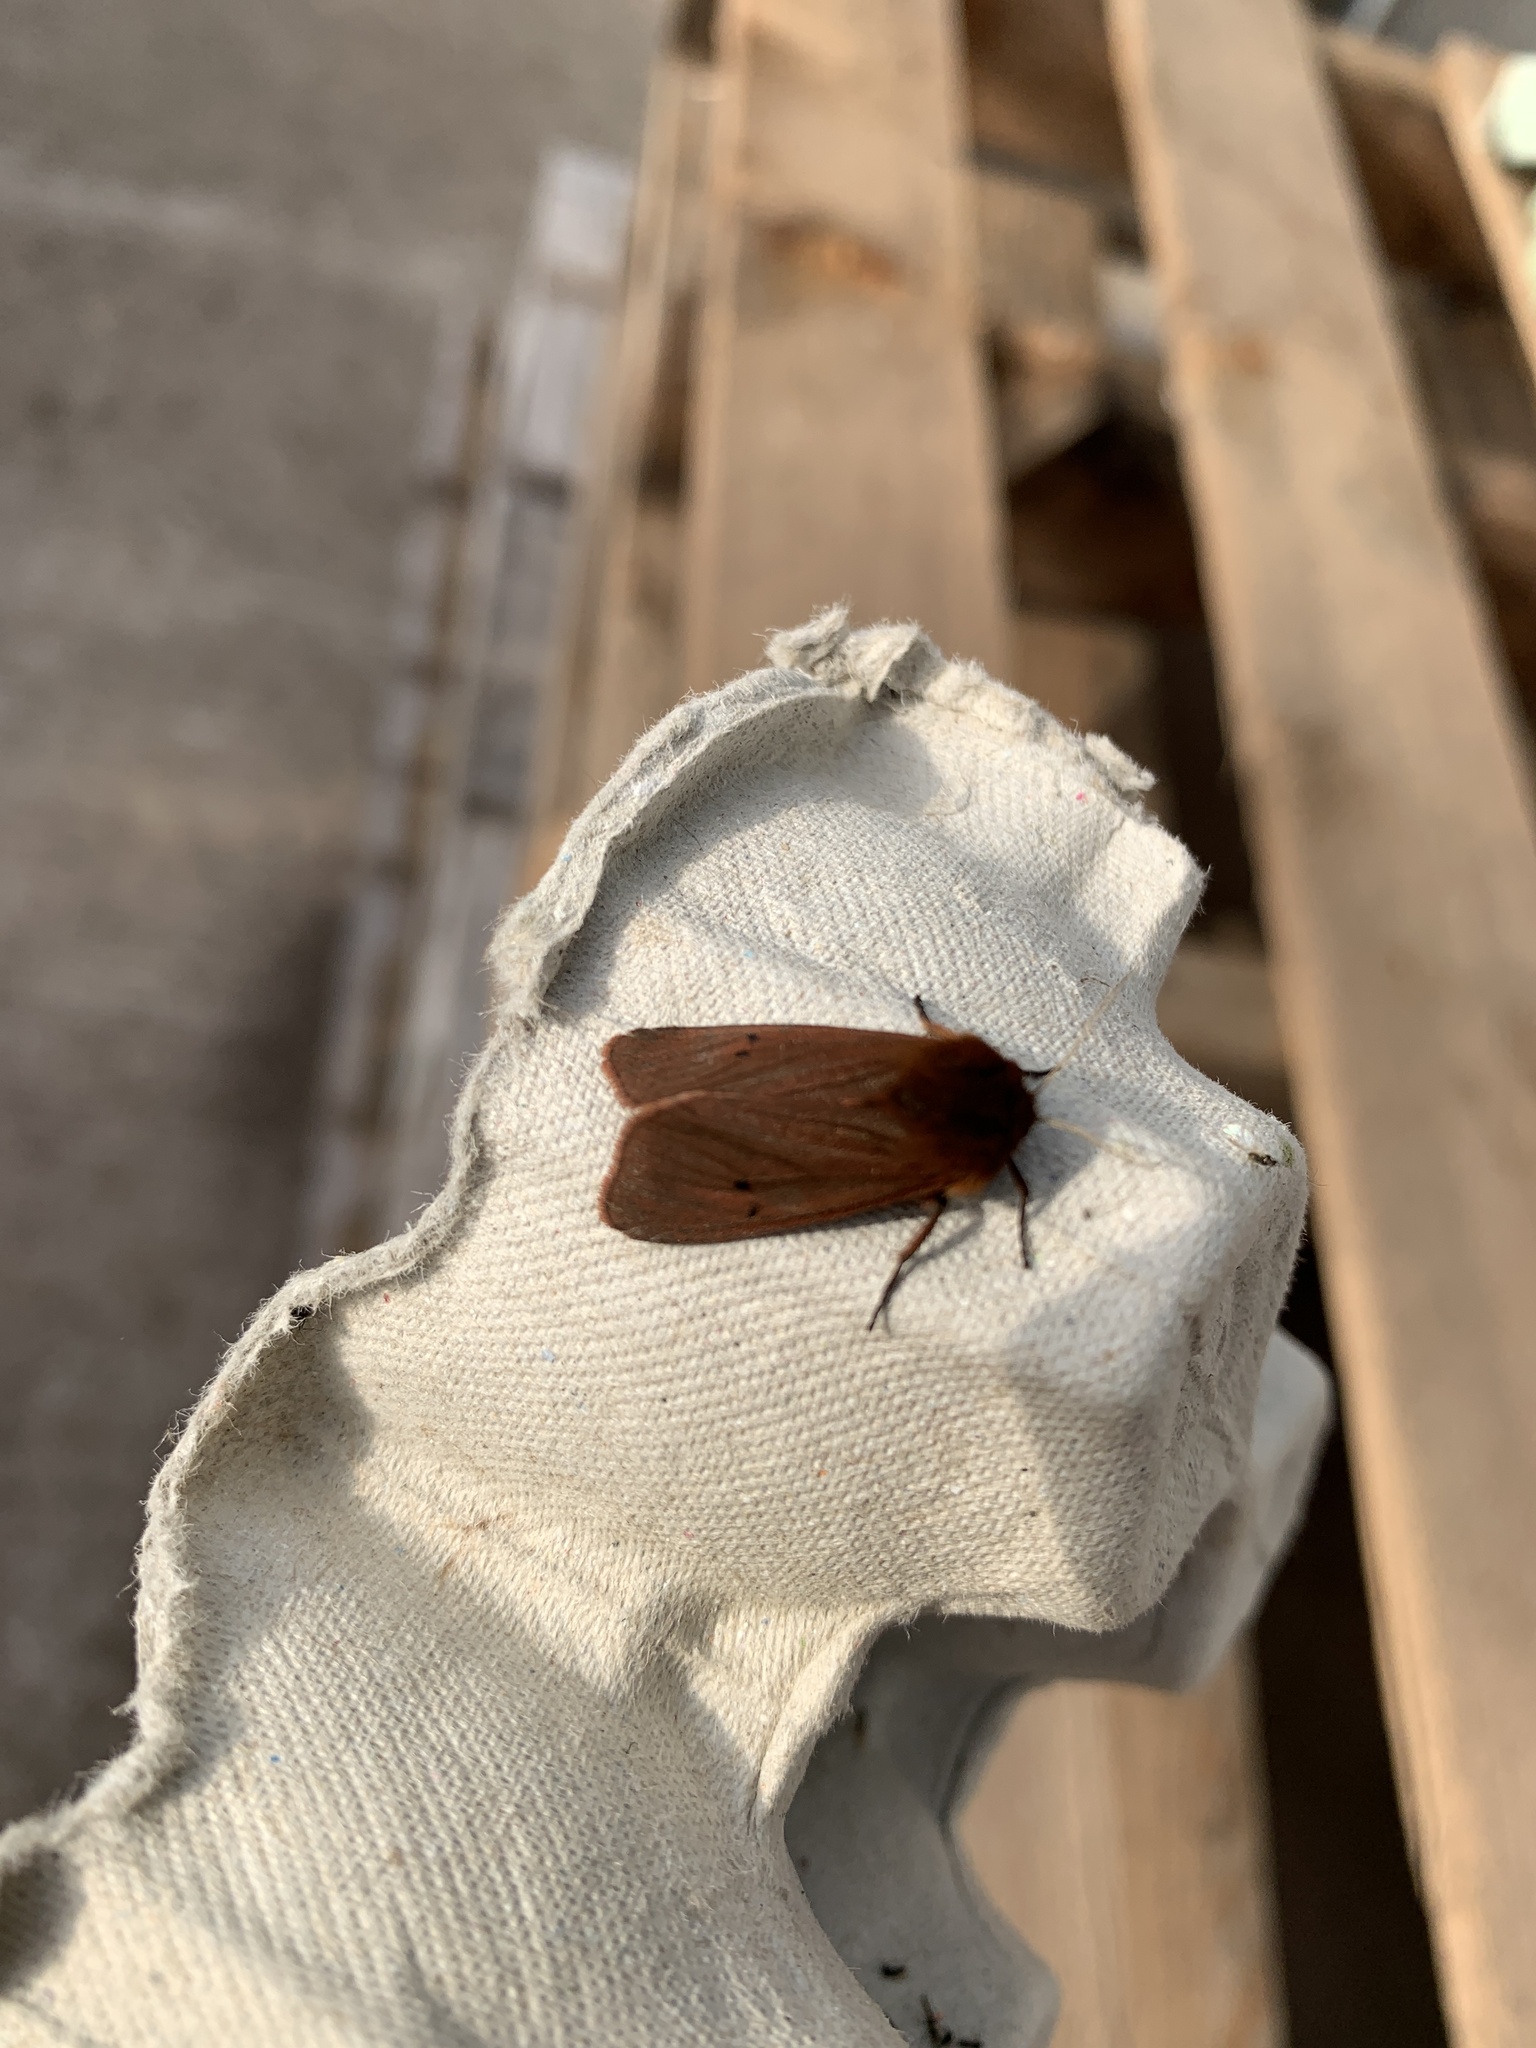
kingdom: Animalia
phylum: Arthropoda
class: Insecta
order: Lepidoptera
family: Erebidae
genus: Phragmatobia
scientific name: Phragmatobia fuliginosa
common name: Ruby tiger
